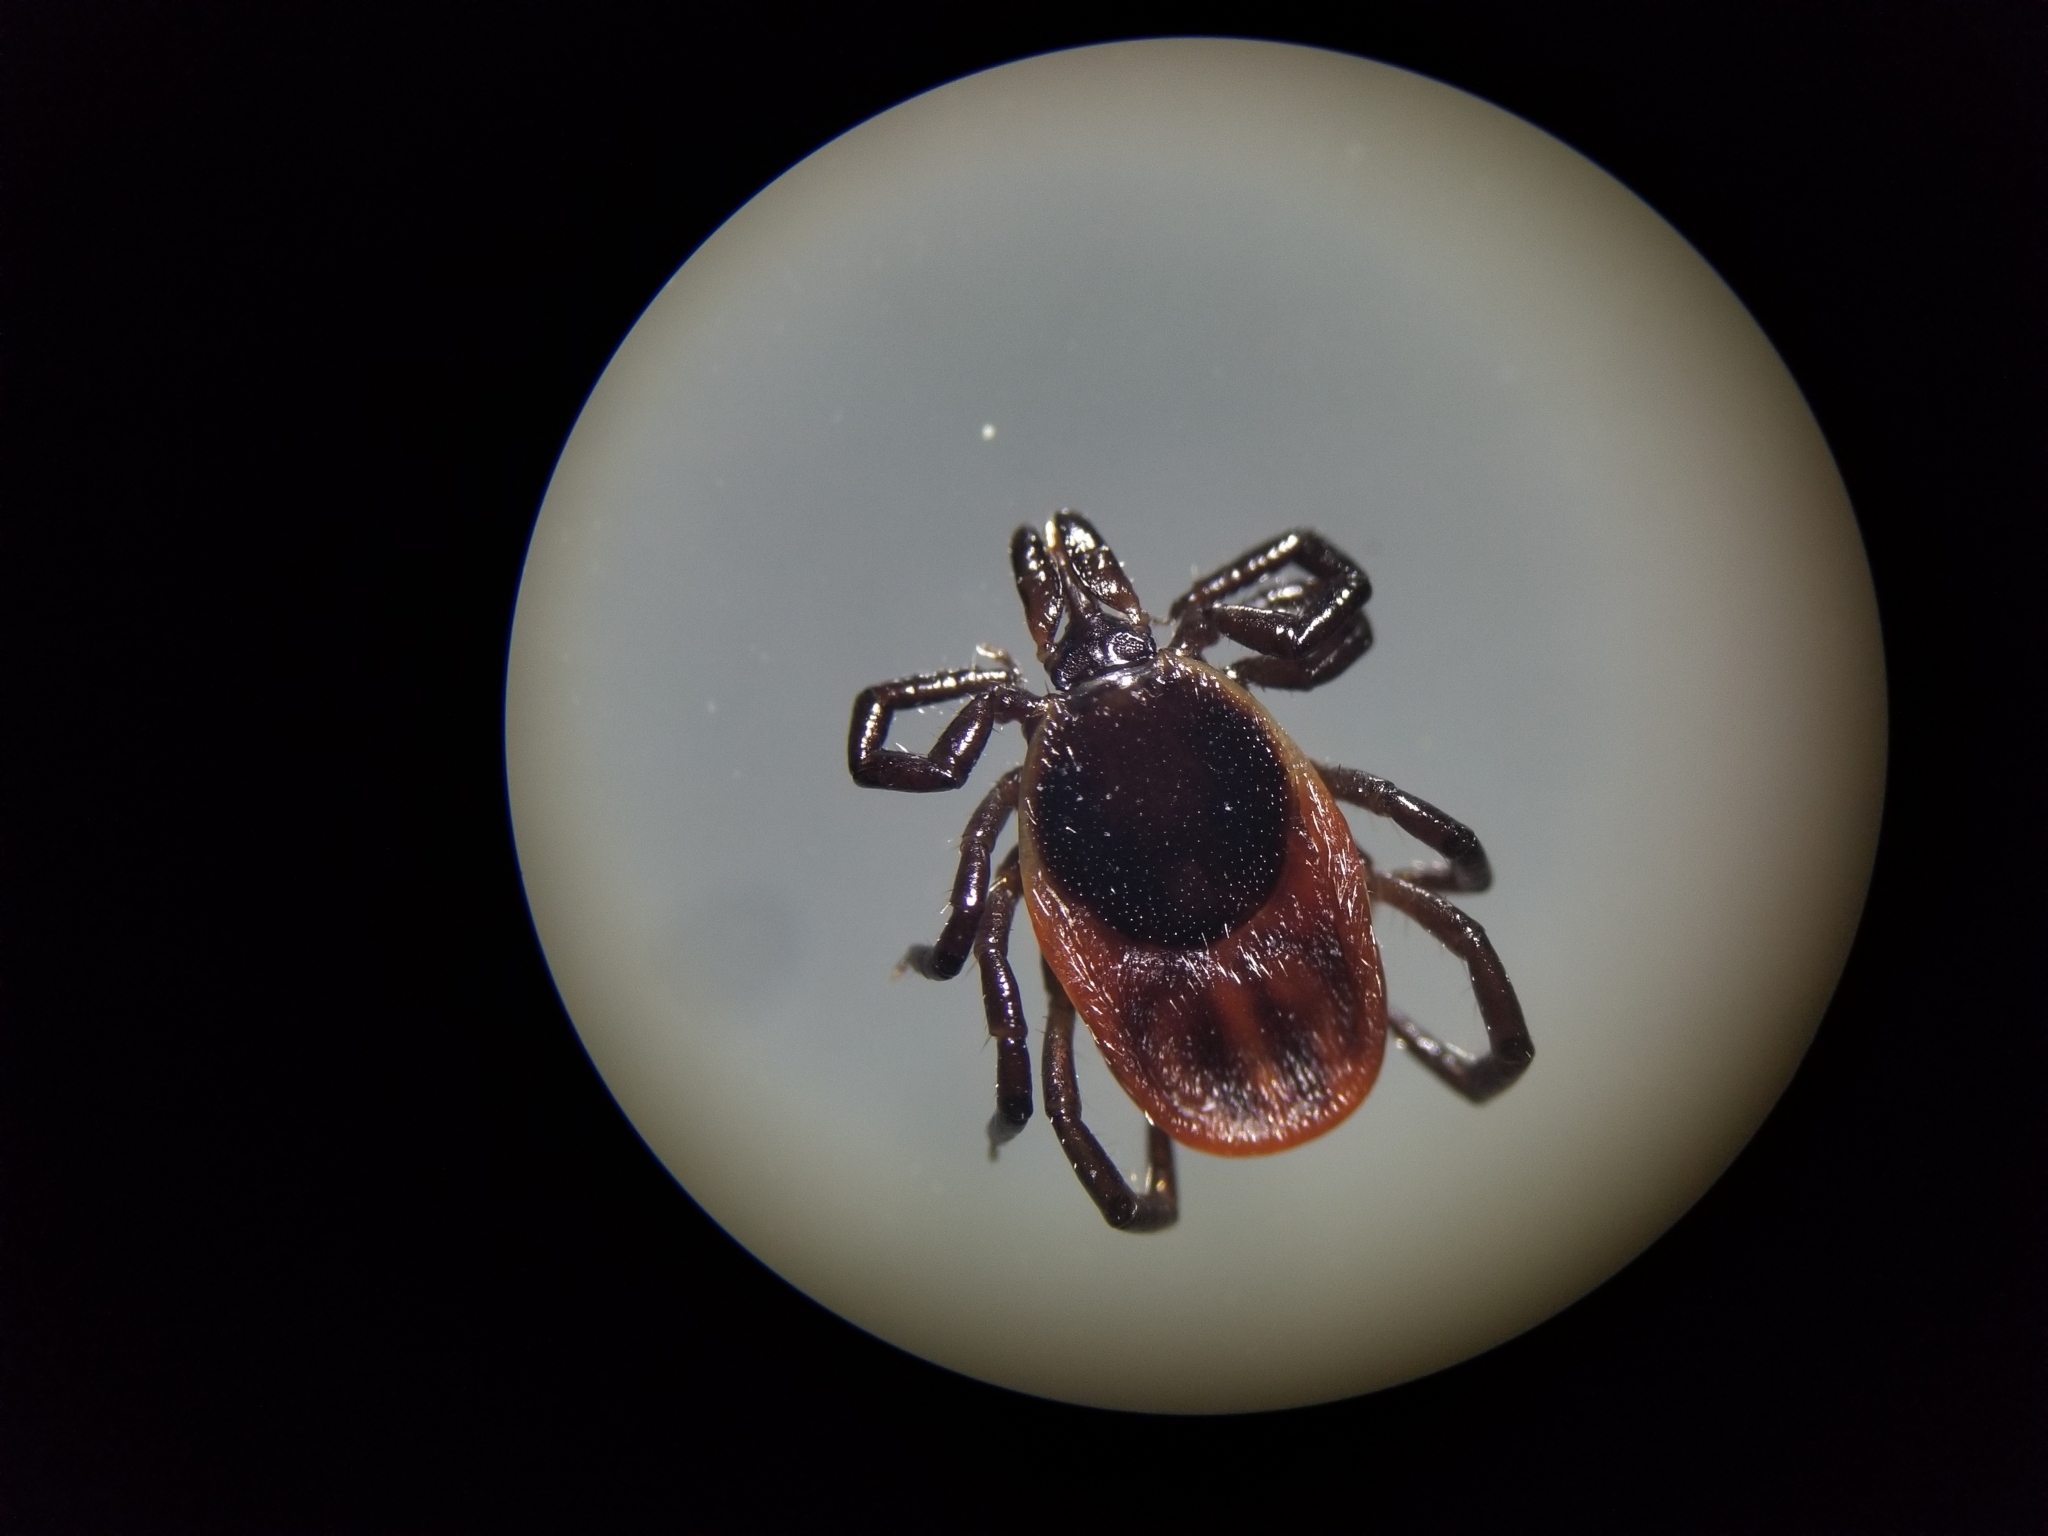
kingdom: Animalia
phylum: Arthropoda
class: Arachnida
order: Ixodida
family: Ixodidae
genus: Ixodes
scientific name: Ixodes scapularis
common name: Black legged tick
